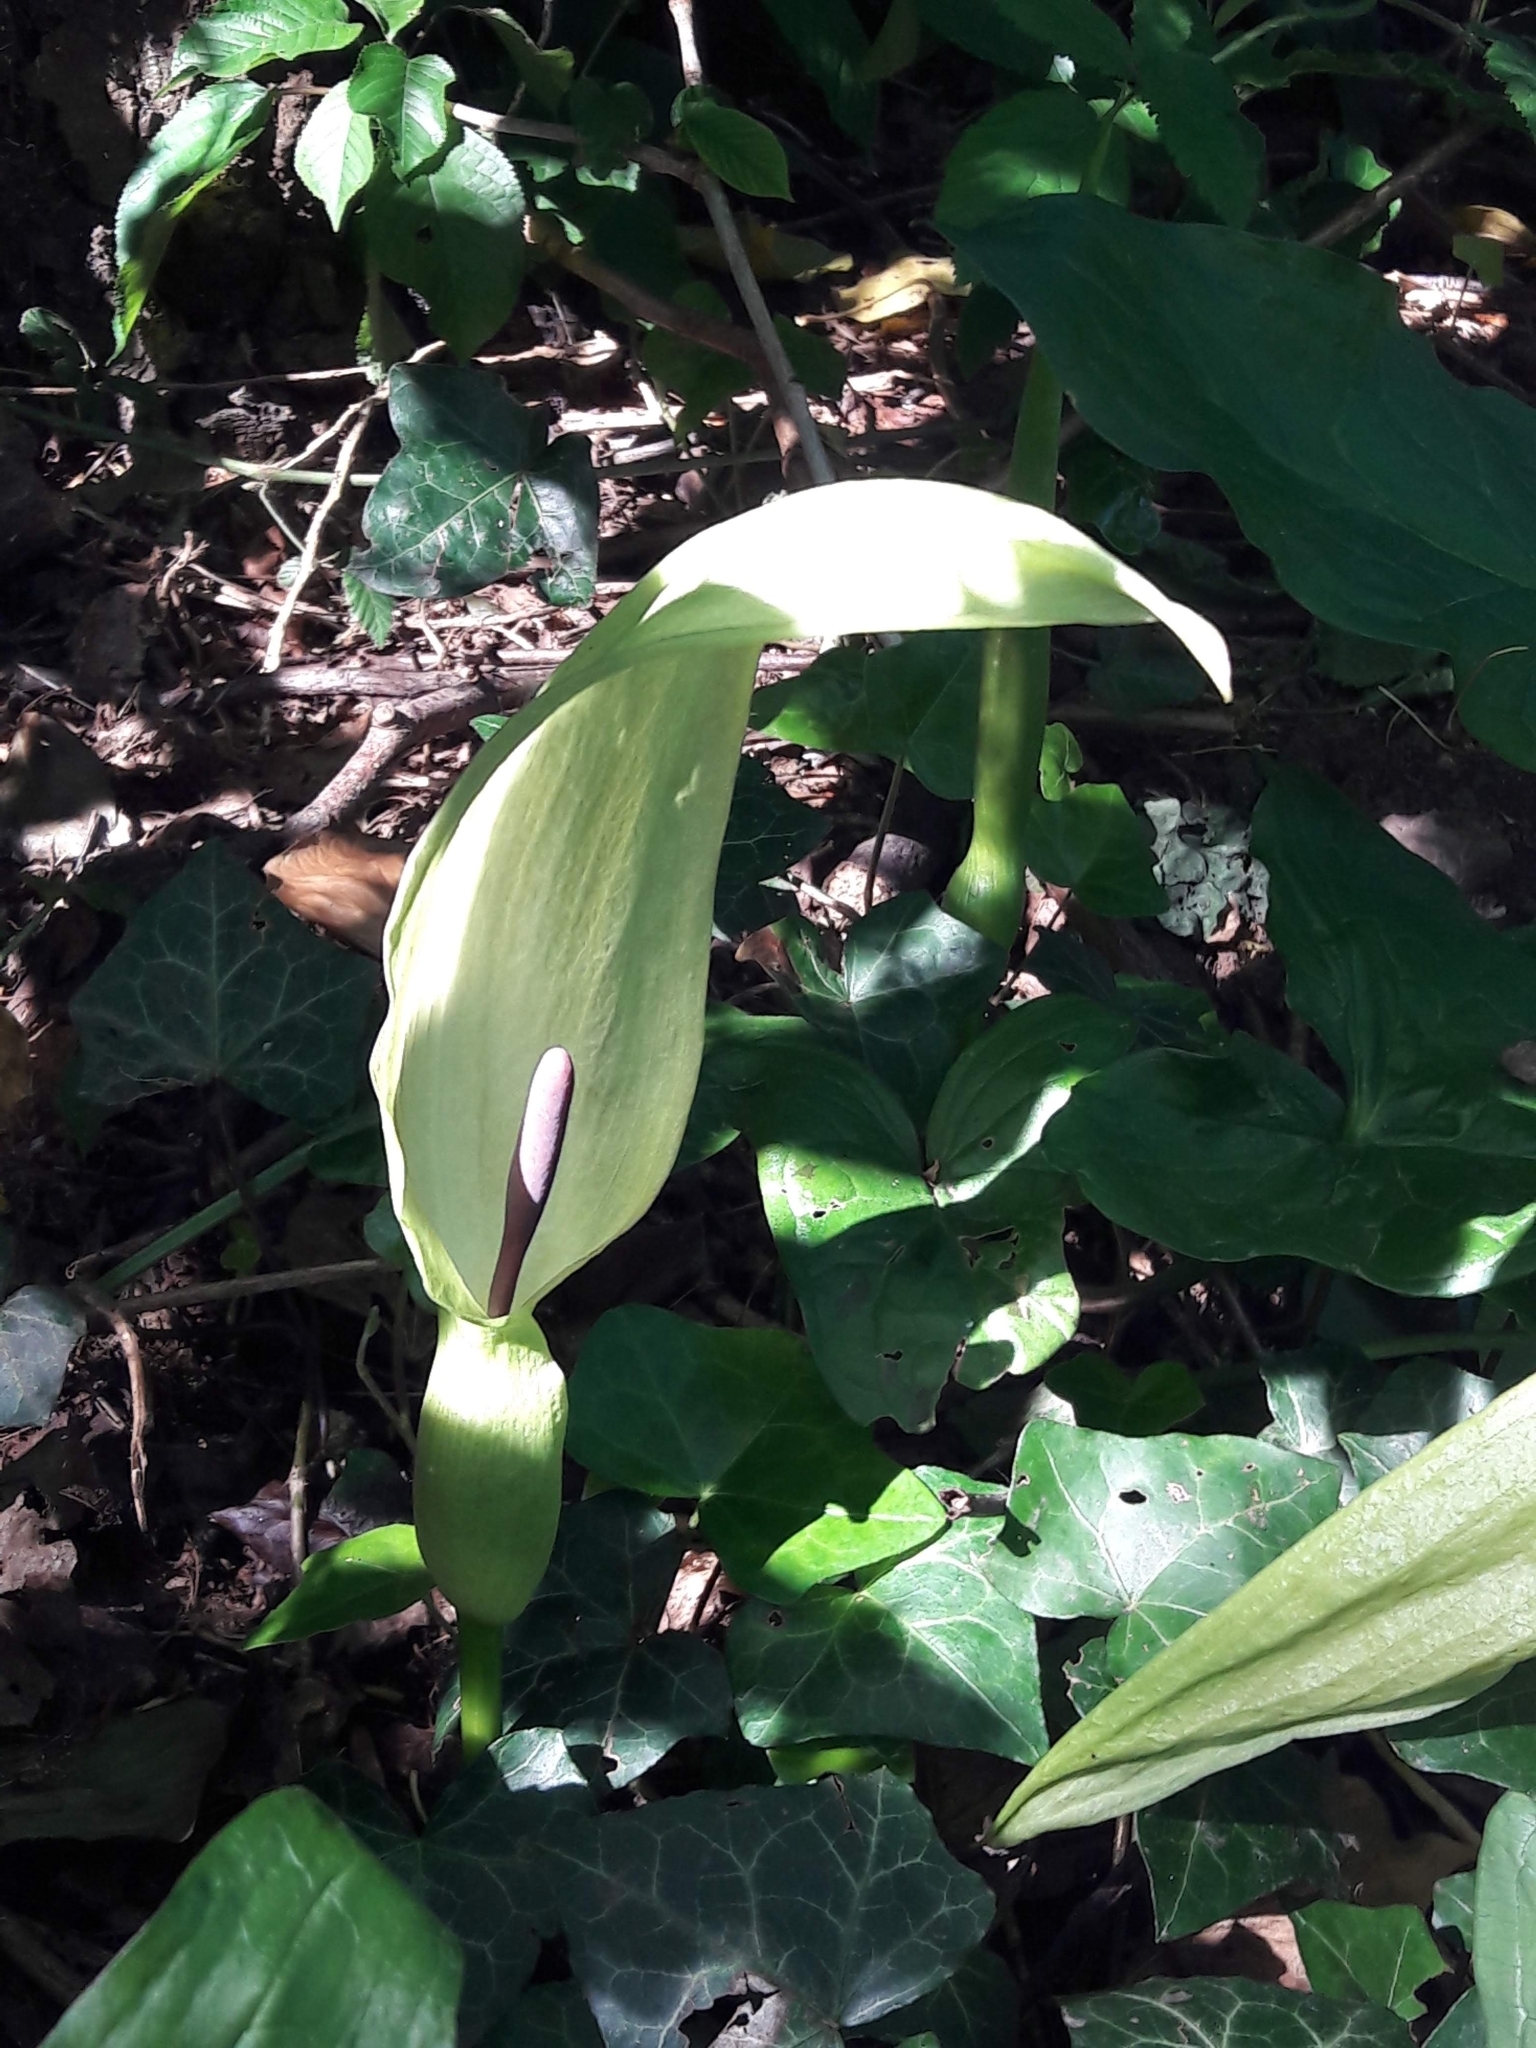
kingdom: Plantae
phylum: Tracheophyta
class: Liliopsida
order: Alismatales
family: Araceae
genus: Arum
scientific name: Arum maculatum
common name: Lords-and-ladies
